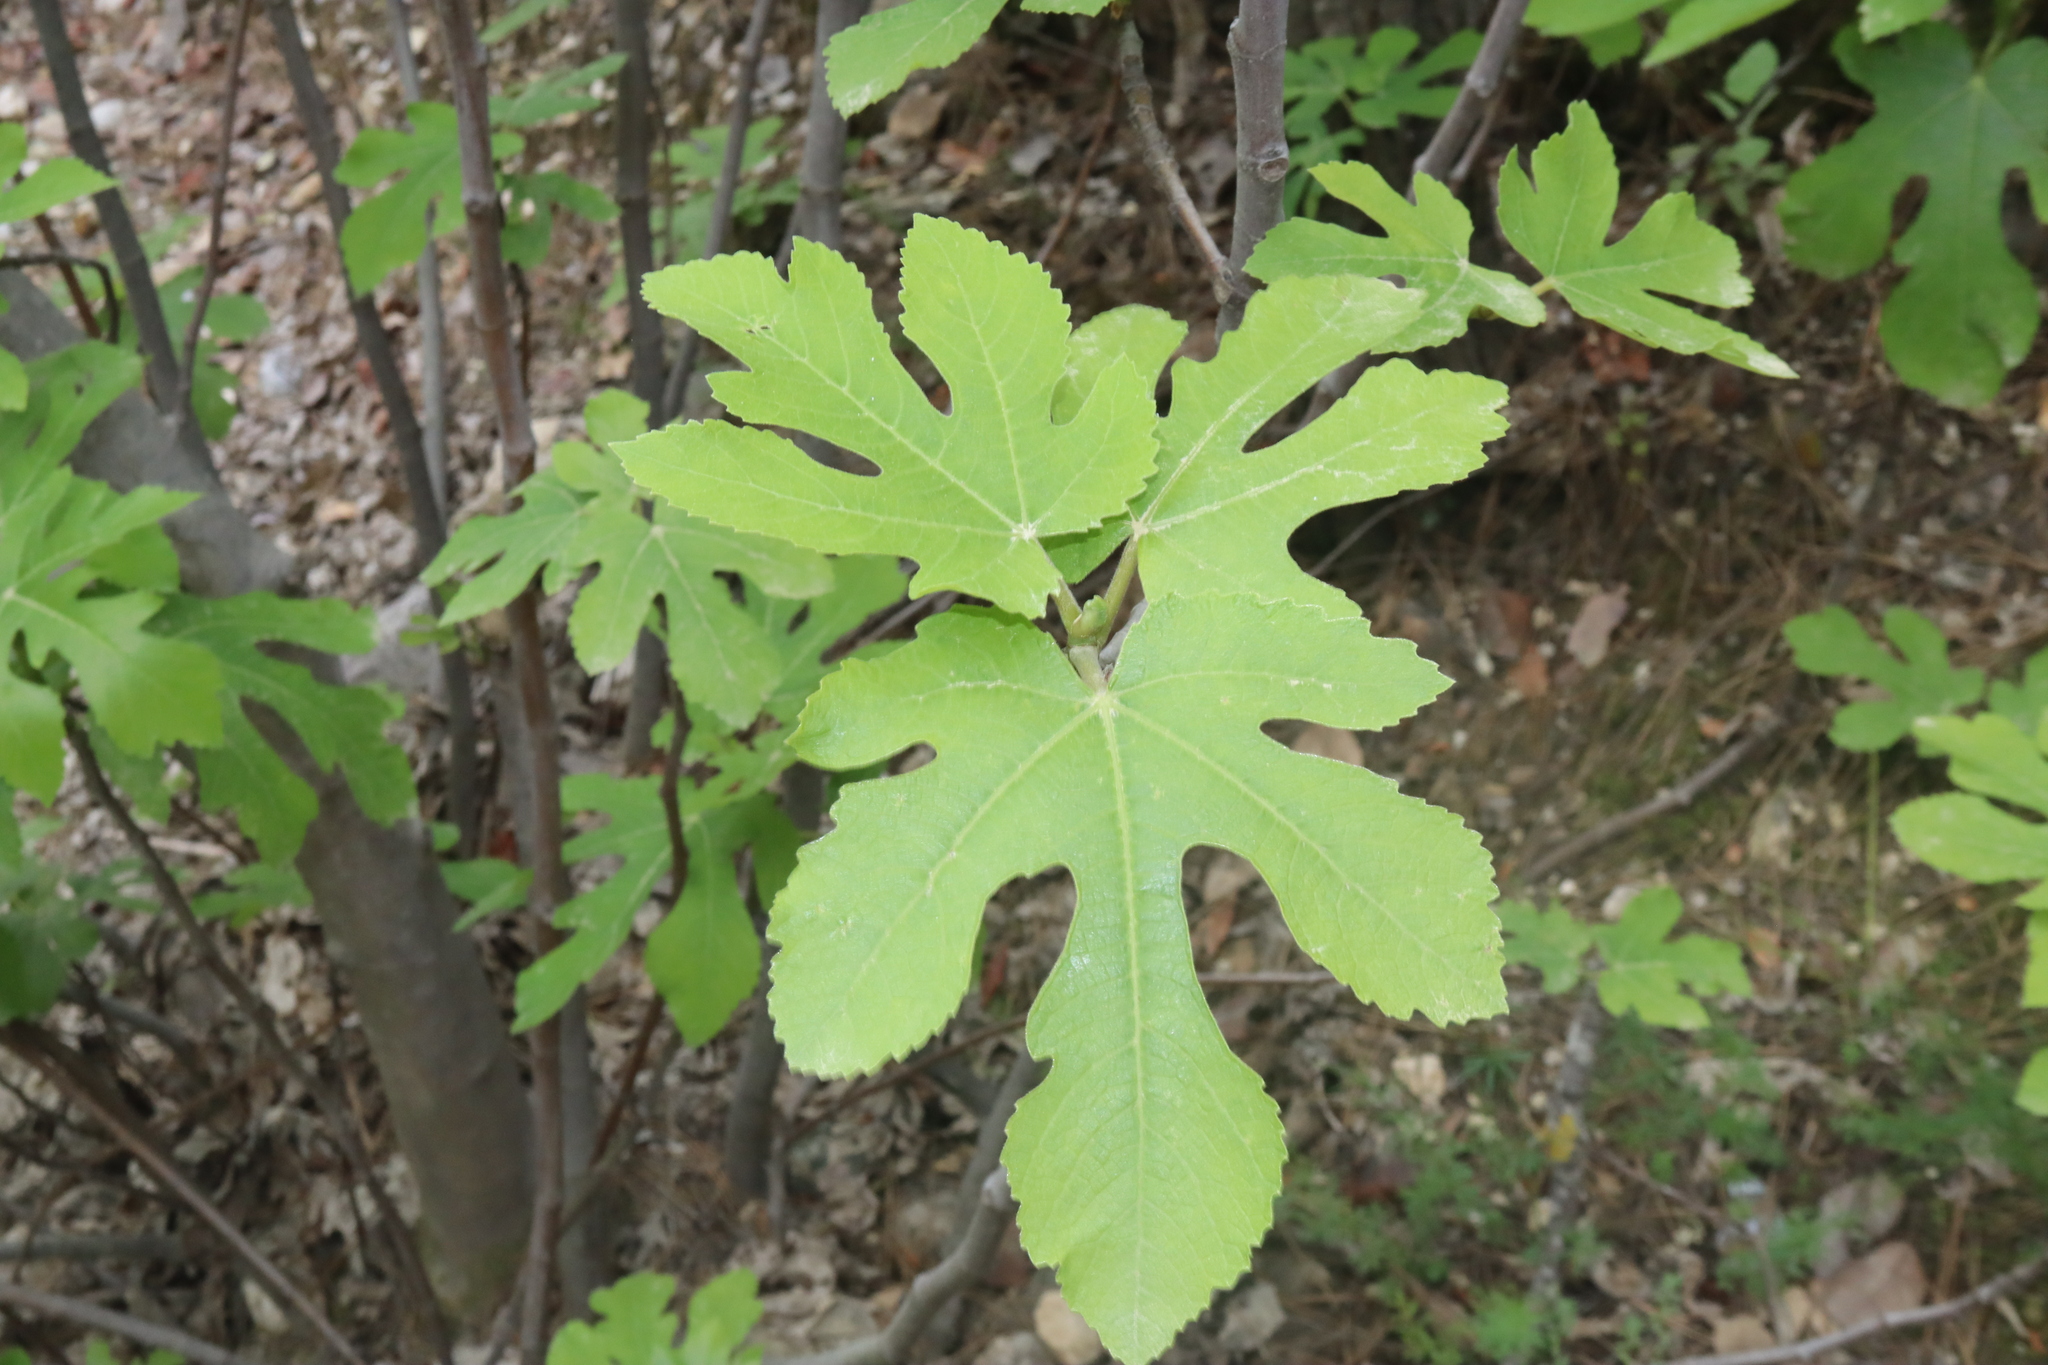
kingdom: Plantae
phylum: Tracheophyta
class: Magnoliopsida
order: Rosales
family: Moraceae
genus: Ficus
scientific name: Ficus carica
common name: Fig
